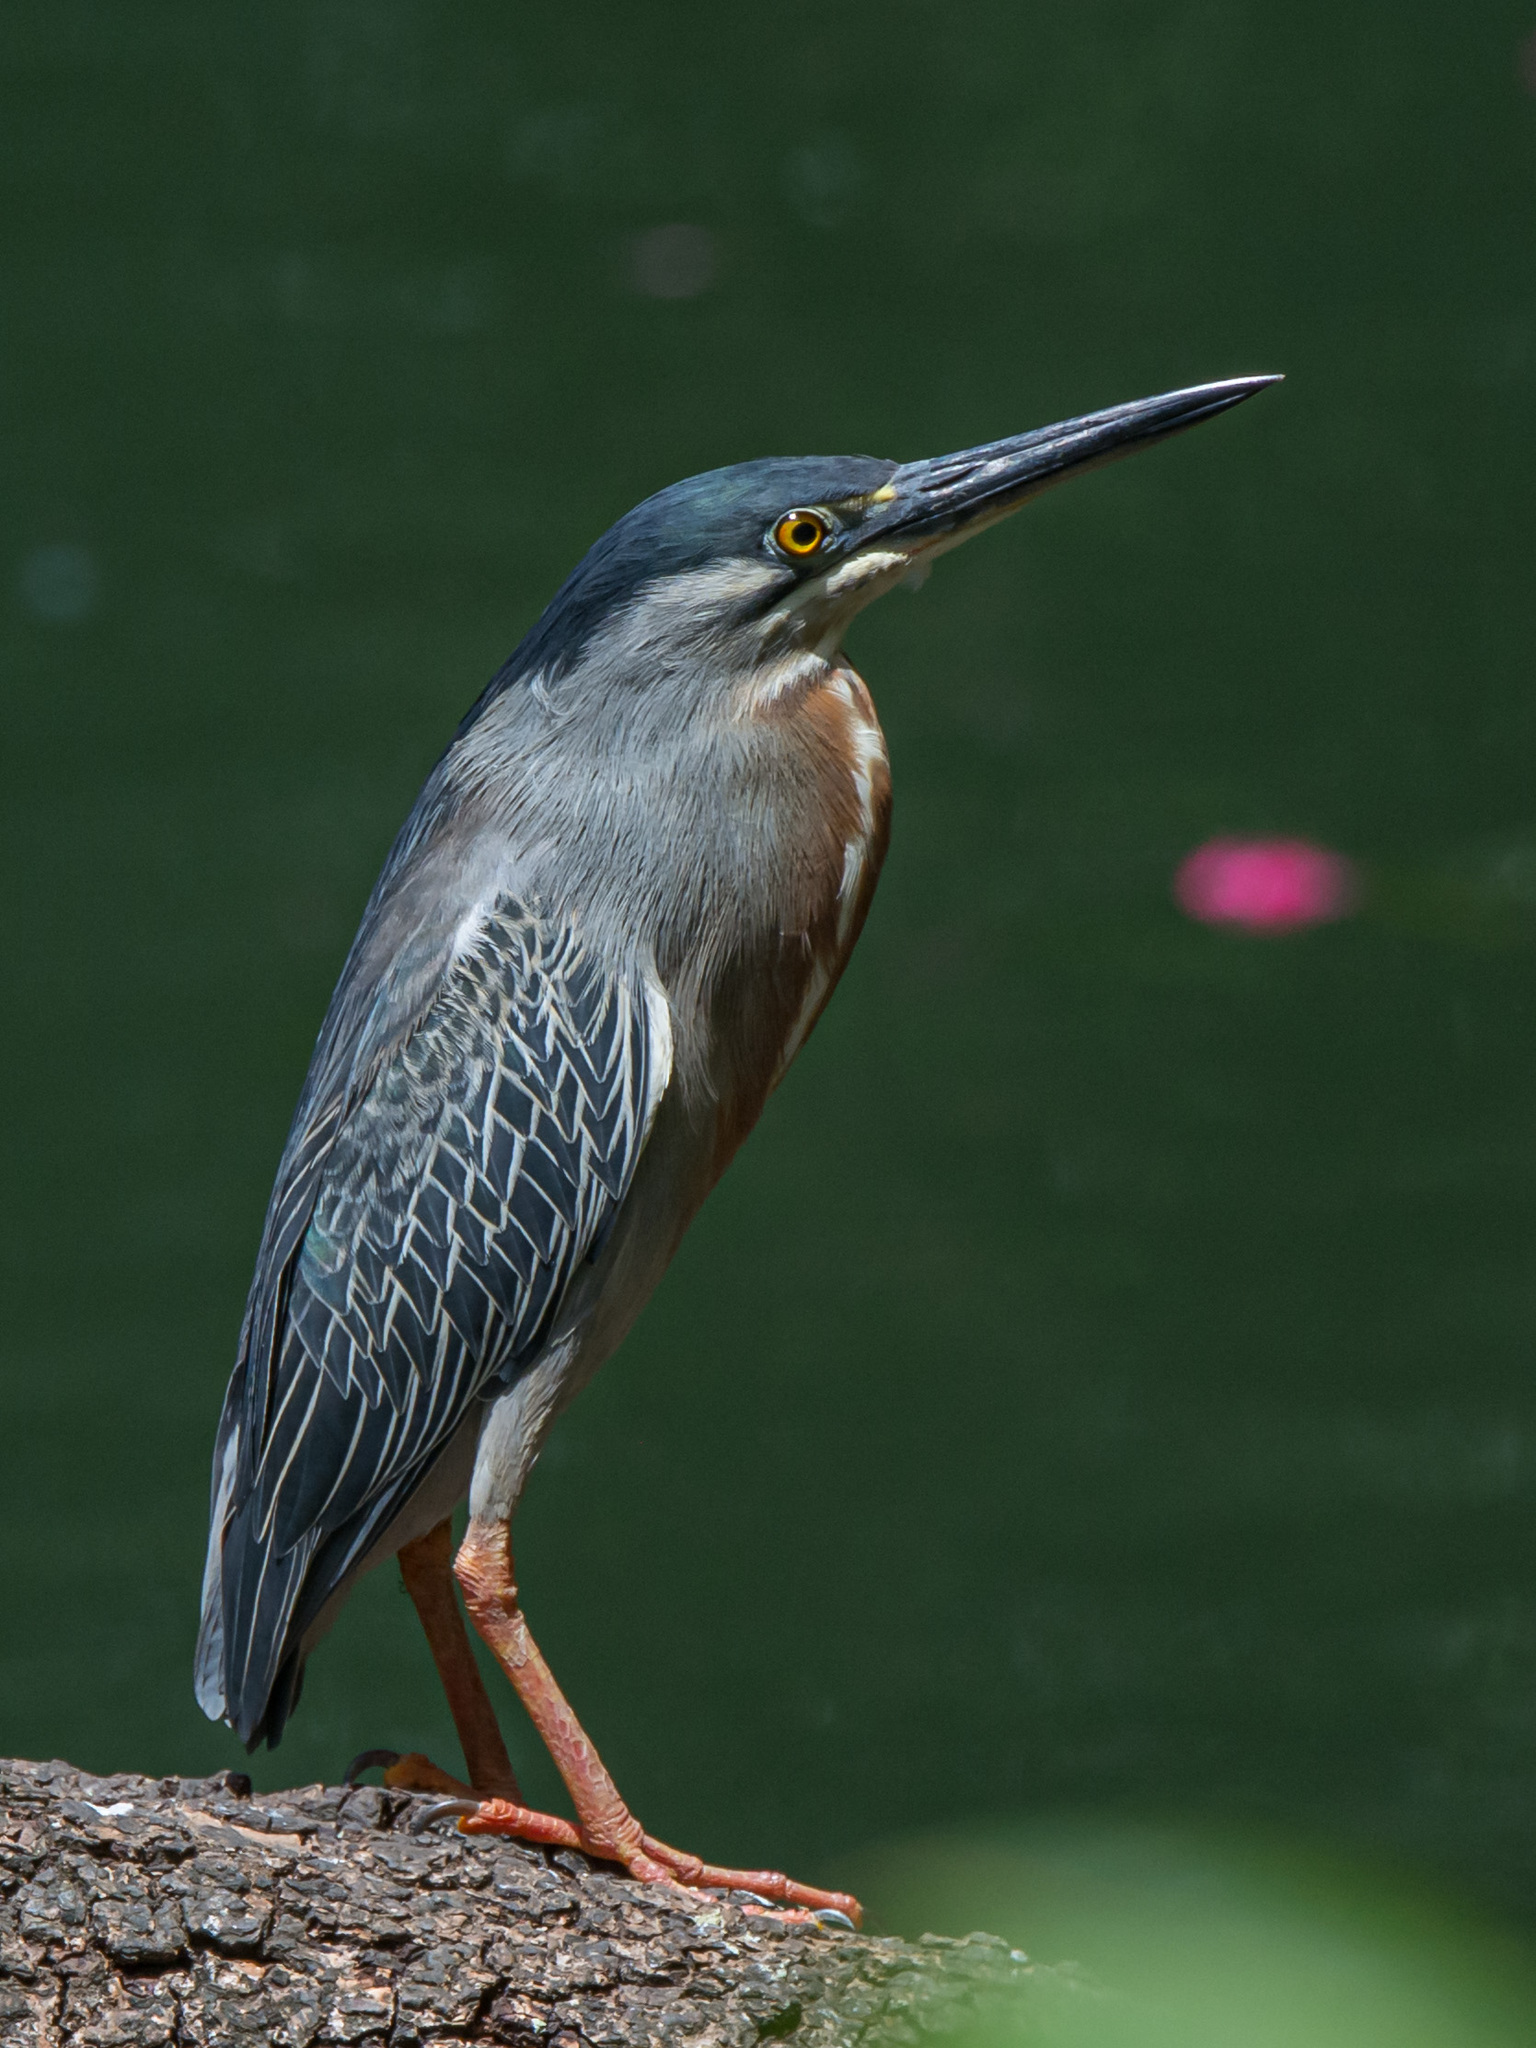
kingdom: Animalia
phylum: Chordata
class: Aves
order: Pelecaniformes
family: Ardeidae
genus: Butorides
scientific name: Butorides striata
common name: Striated heron
